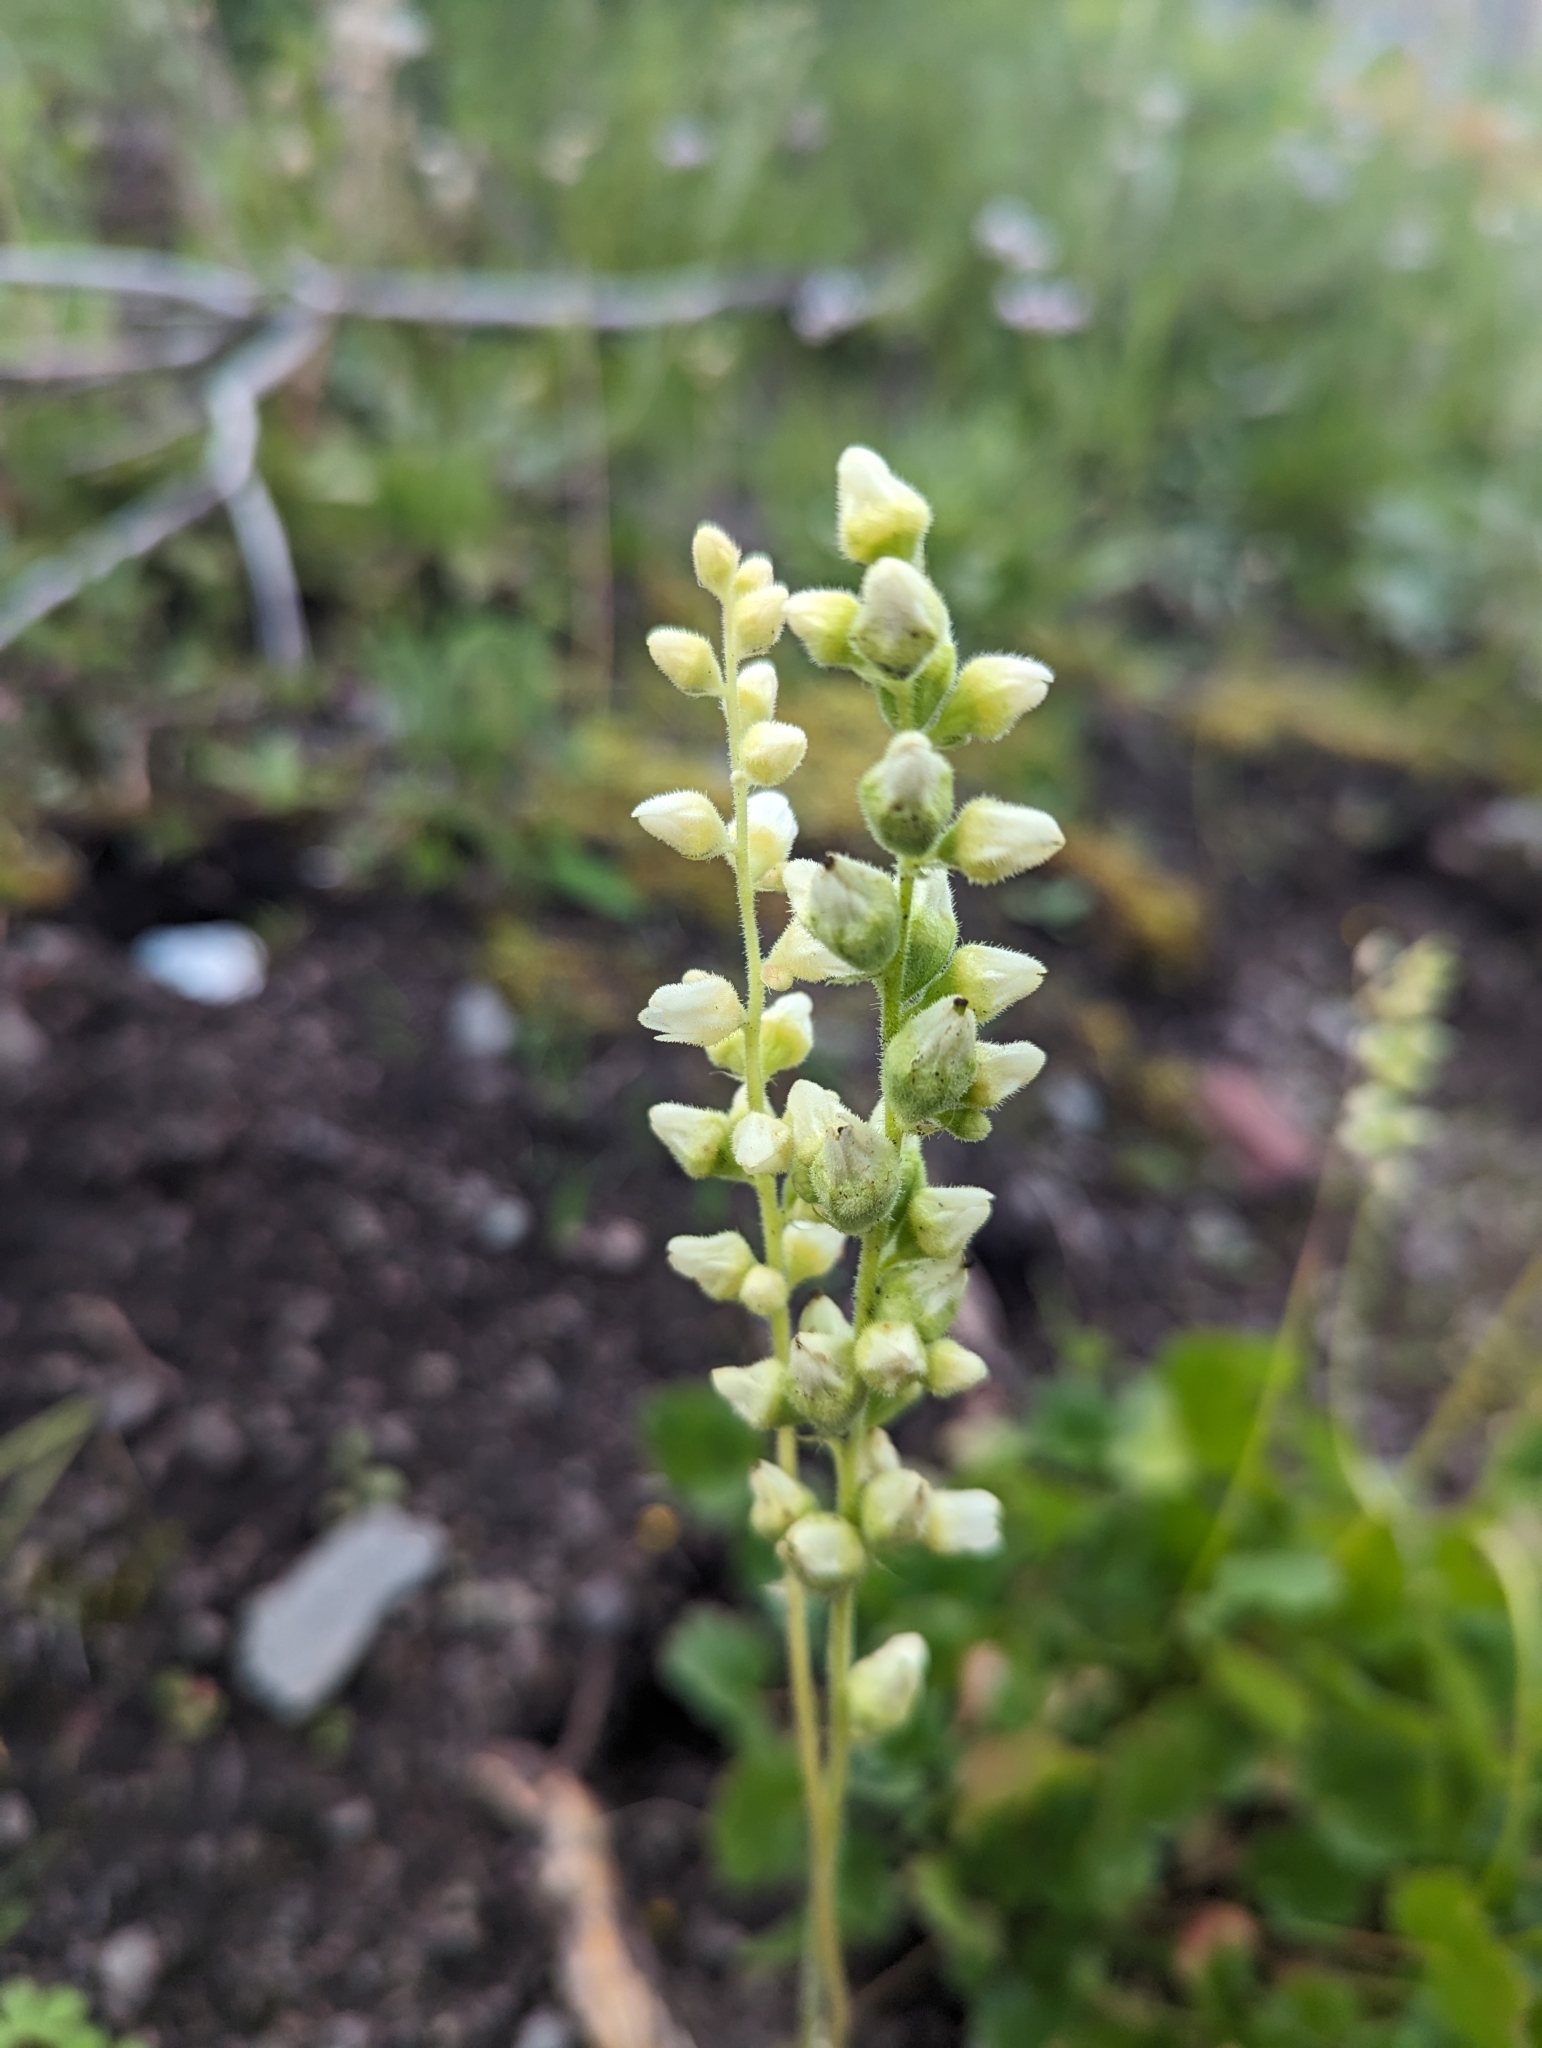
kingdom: Plantae
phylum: Tracheophyta
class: Magnoliopsida
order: Saxifragales
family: Saxifragaceae
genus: Heuchera
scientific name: Heuchera cylindrica
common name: Mat alumroot
